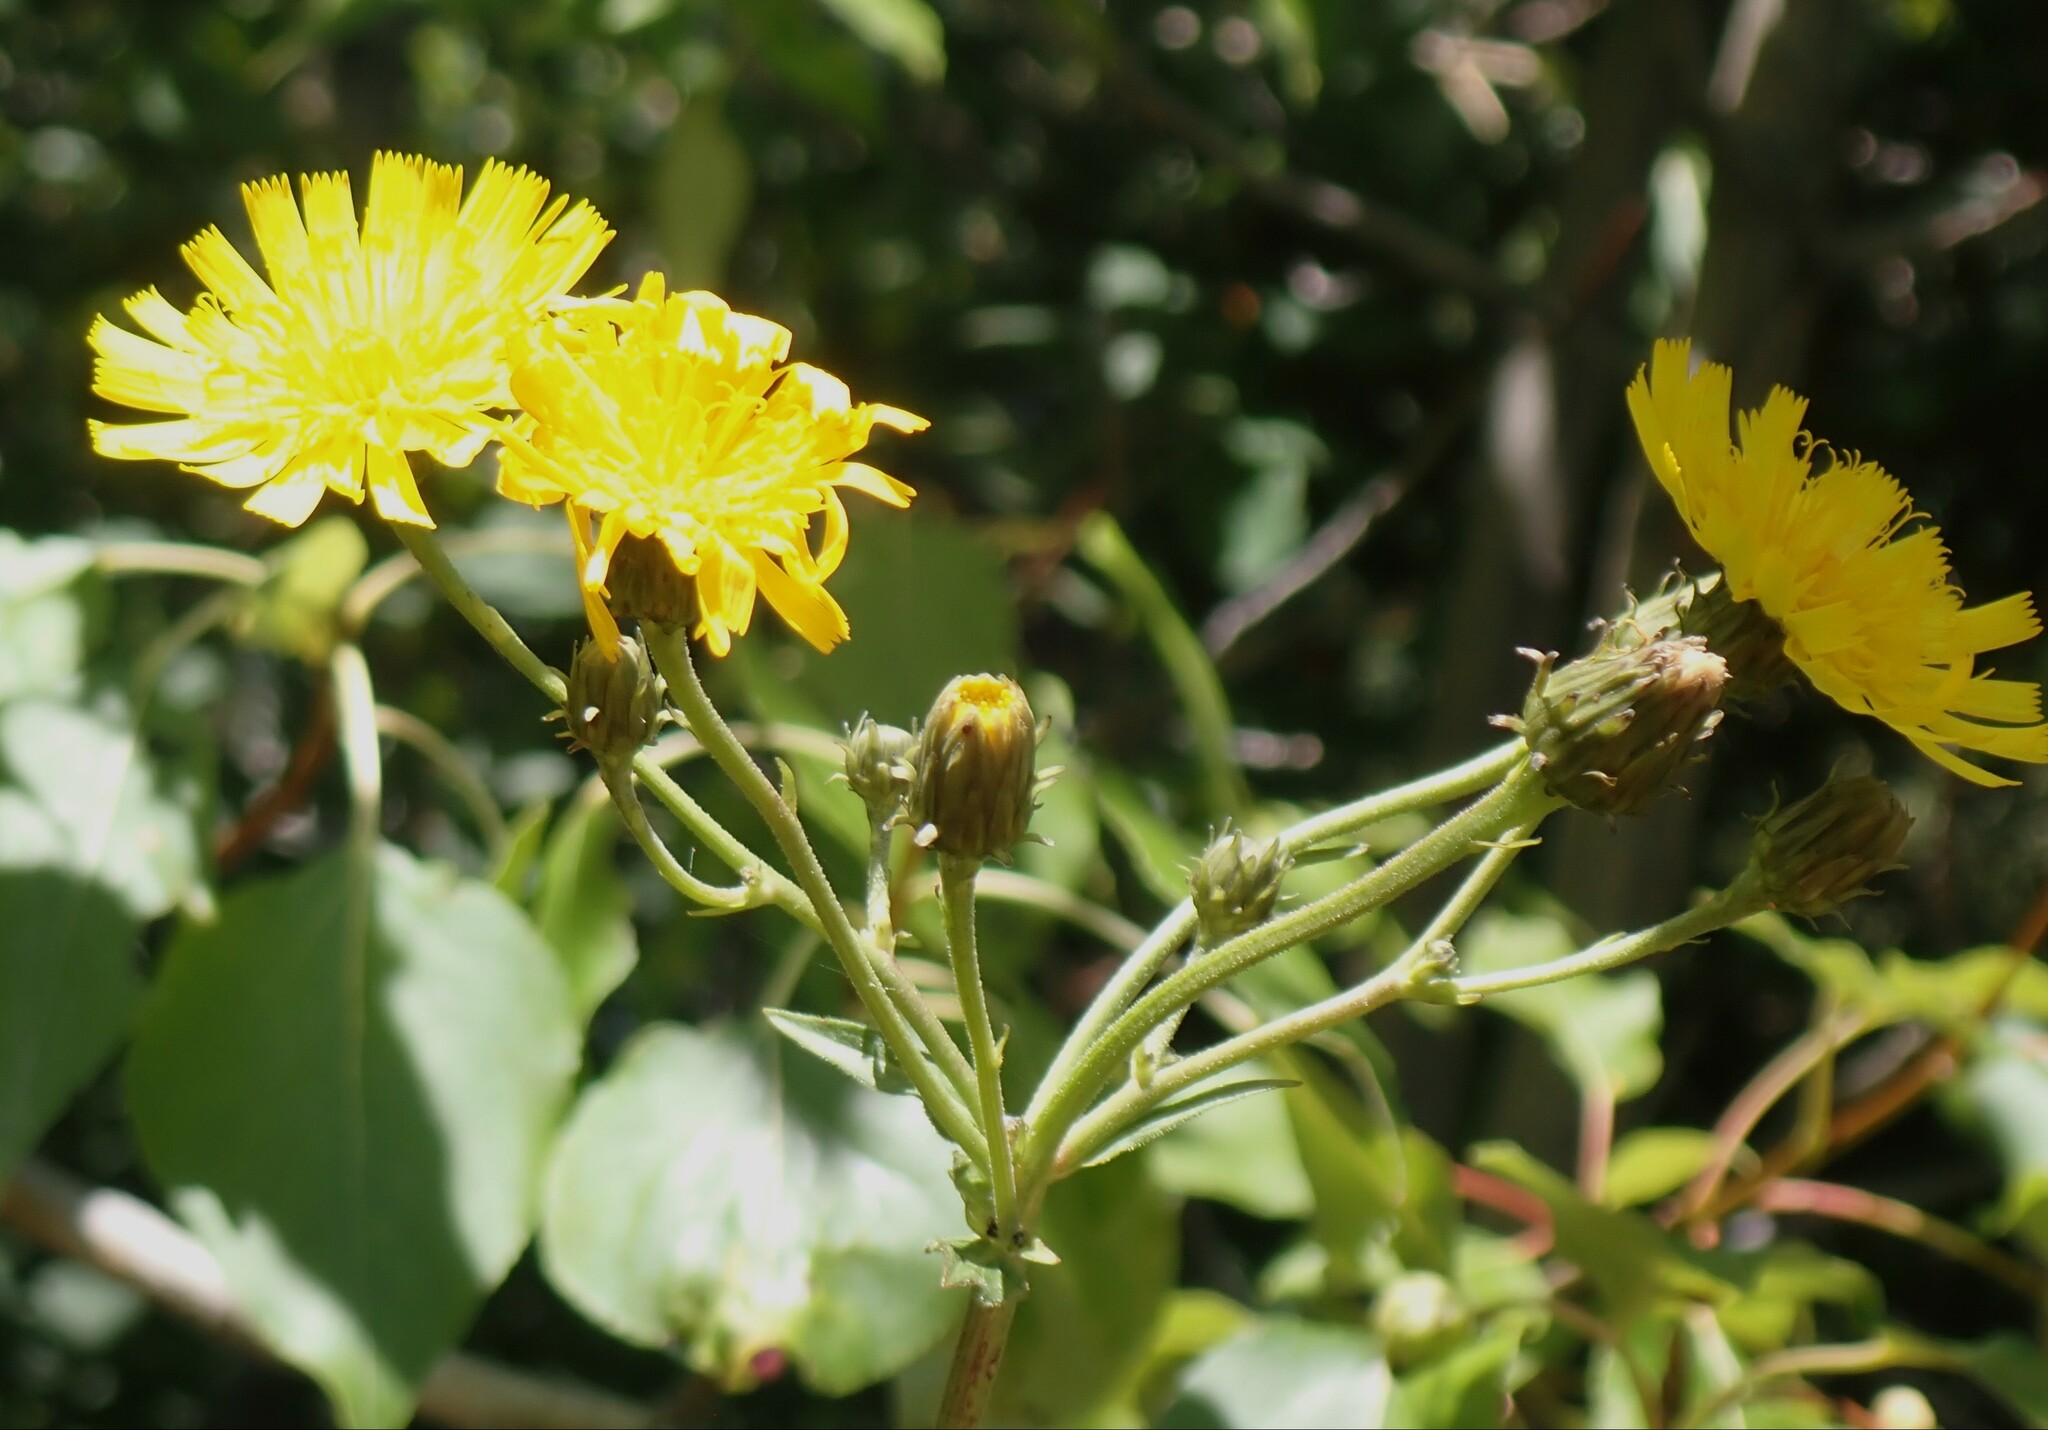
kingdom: Plantae
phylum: Tracheophyta
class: Magnoliopsida
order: Asterales
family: Asteraceae
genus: Hieracium
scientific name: Hieracium umbellatum
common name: Northern hawkweed
